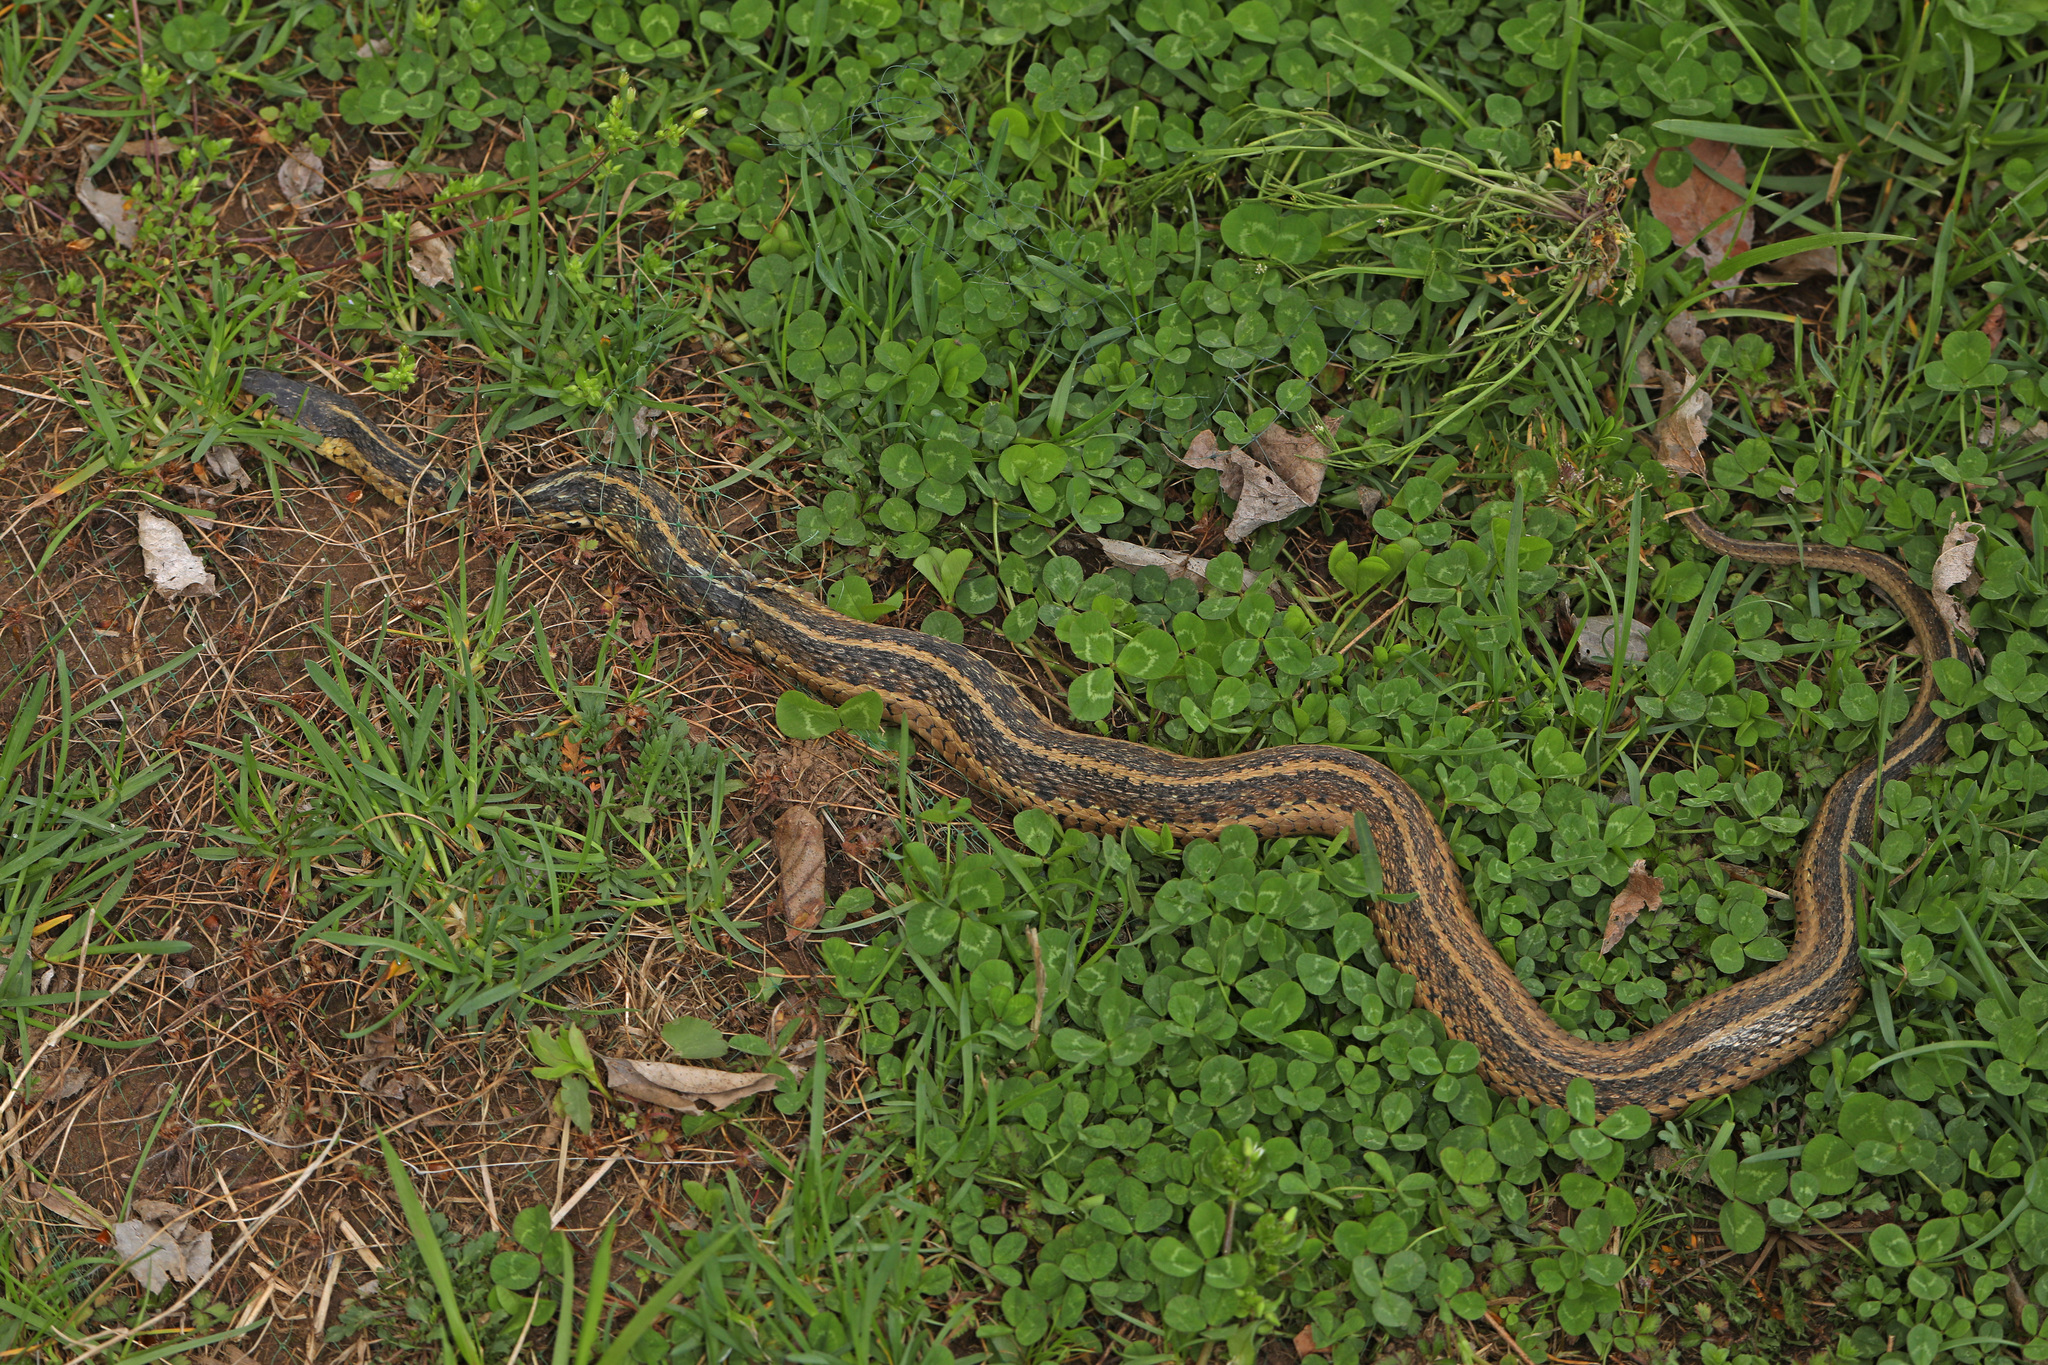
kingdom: Animalia
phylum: Chordata
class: Squamata
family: Colubridae
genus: Thamnophis
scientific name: Thamnophis sirtalis
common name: Common garter snake
